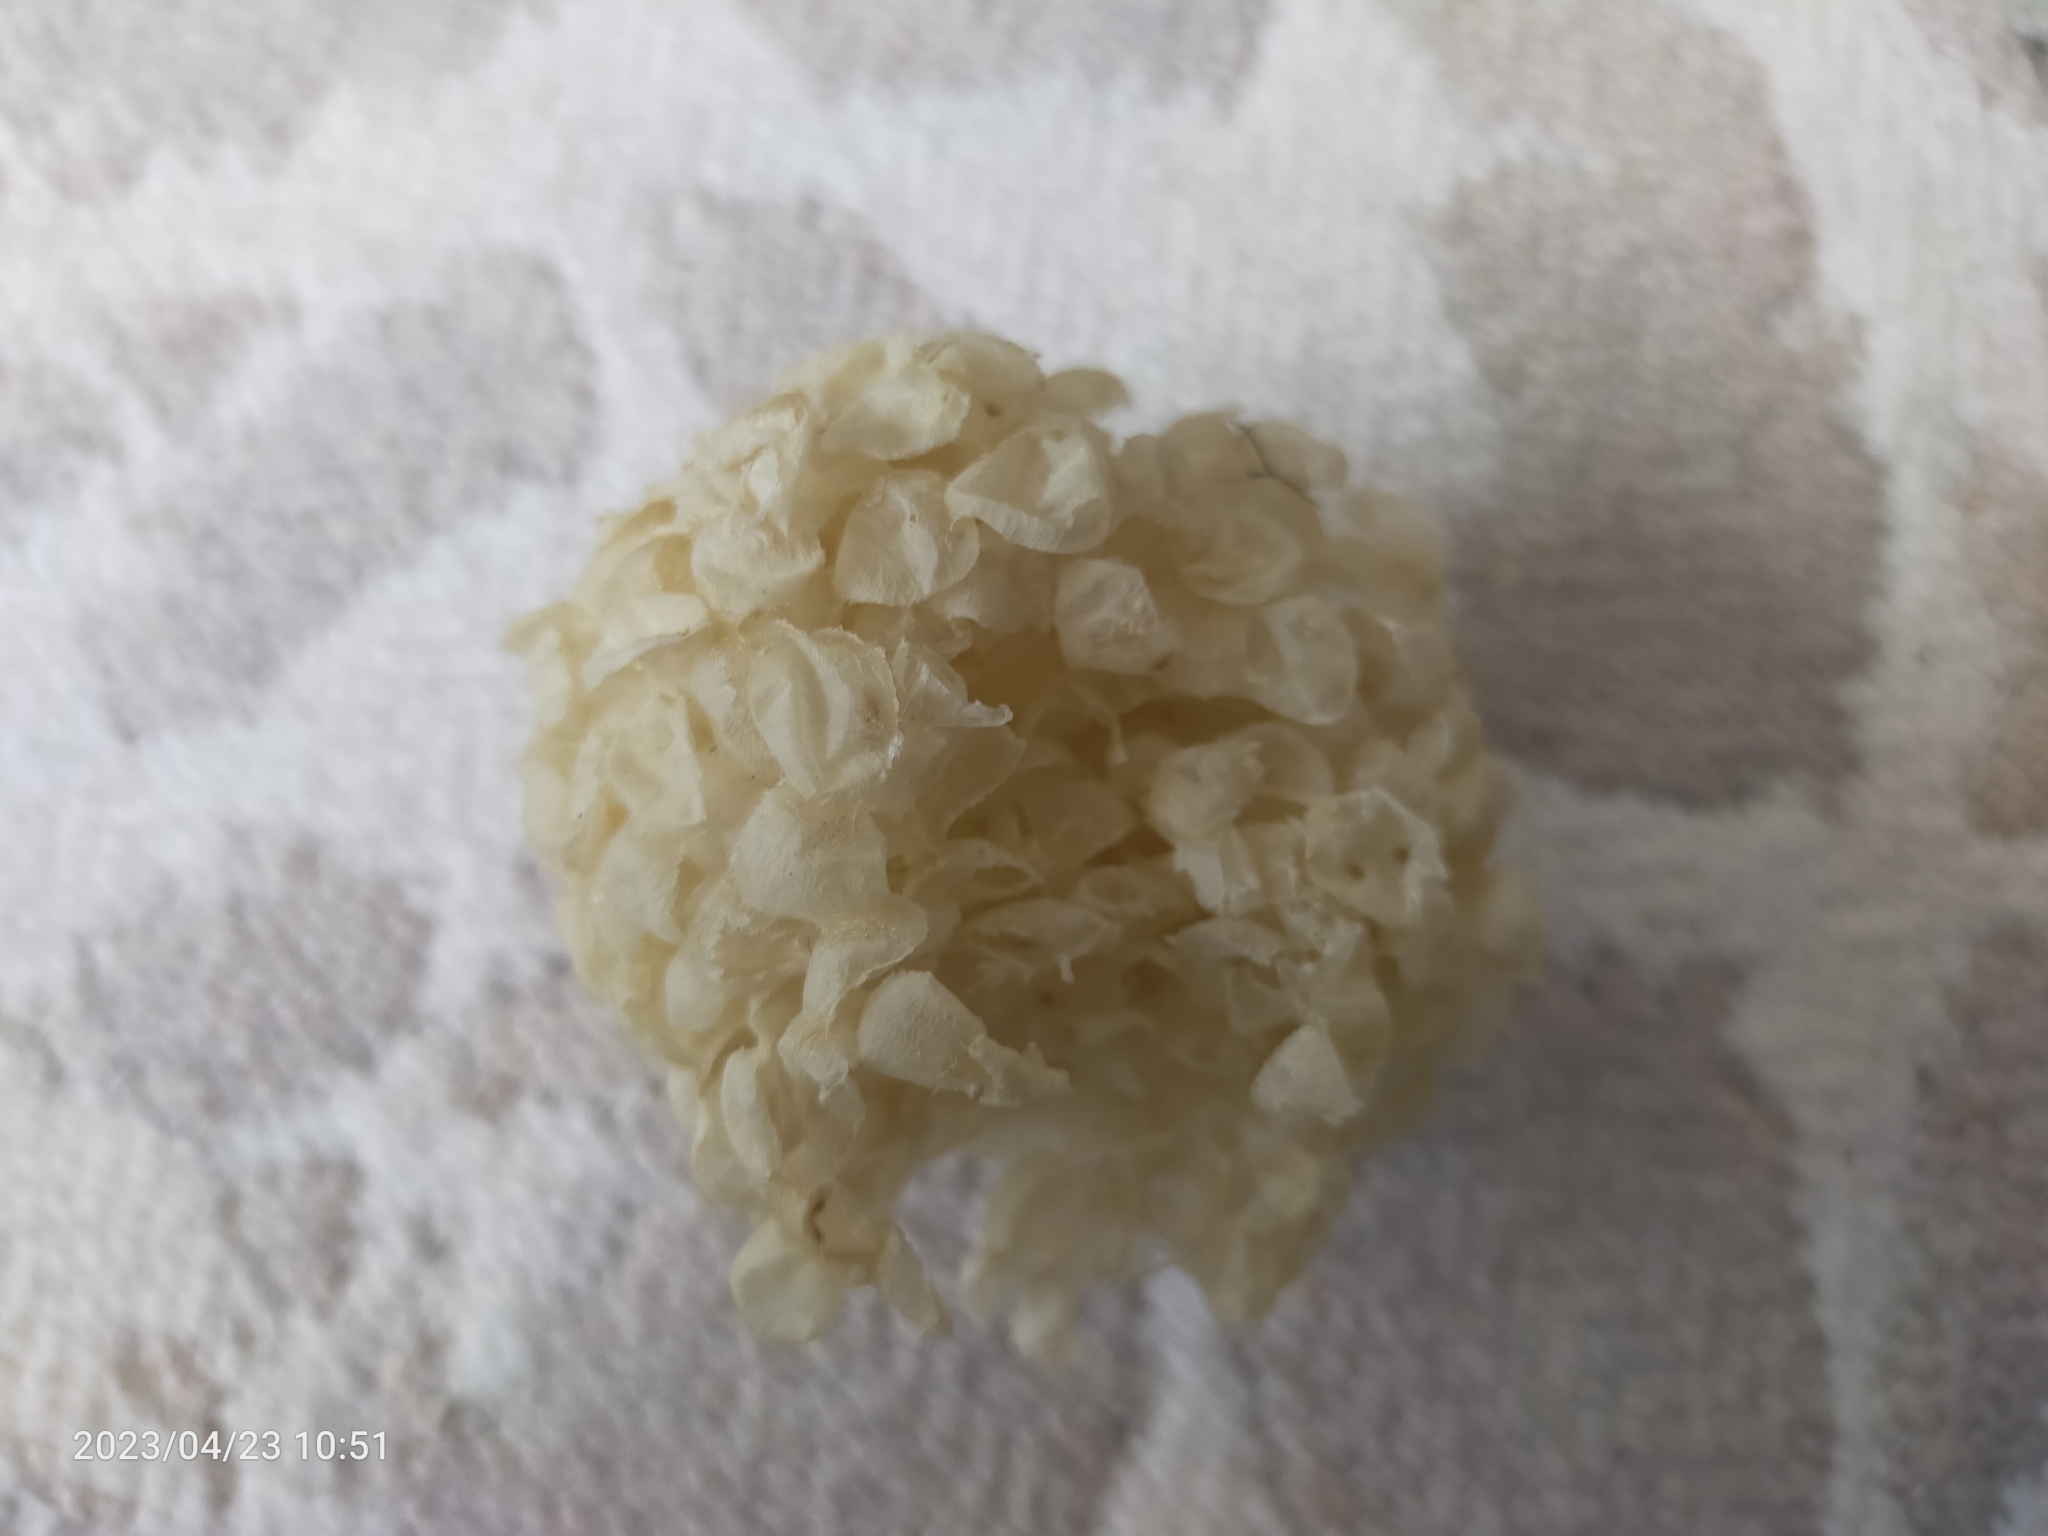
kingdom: Animalia
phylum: Mollusca
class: Gastropoda
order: Neogastropoda
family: Buccinidae
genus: Buccinum
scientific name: Buccinum undatum
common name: Common whelk
